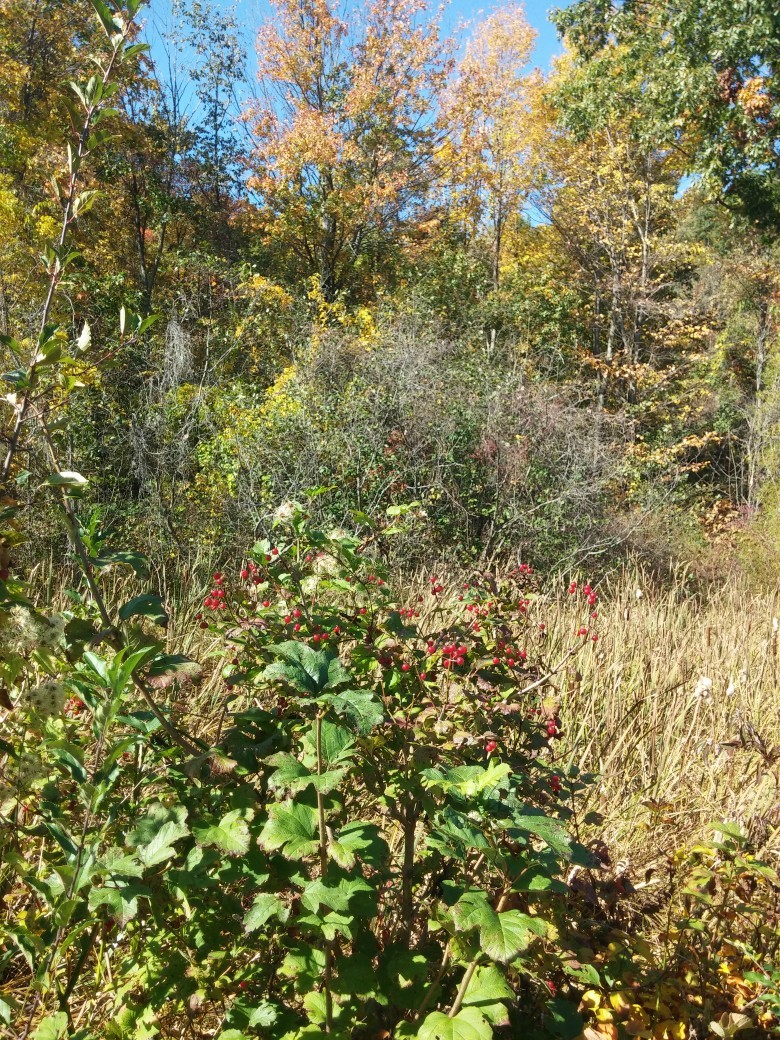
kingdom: Plantae
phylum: Tracheophyta
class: Magnoliopsida
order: Dipsacales
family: Viburnaceae
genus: Viburnum
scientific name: Viburnum trilobum
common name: American cranberrybush
